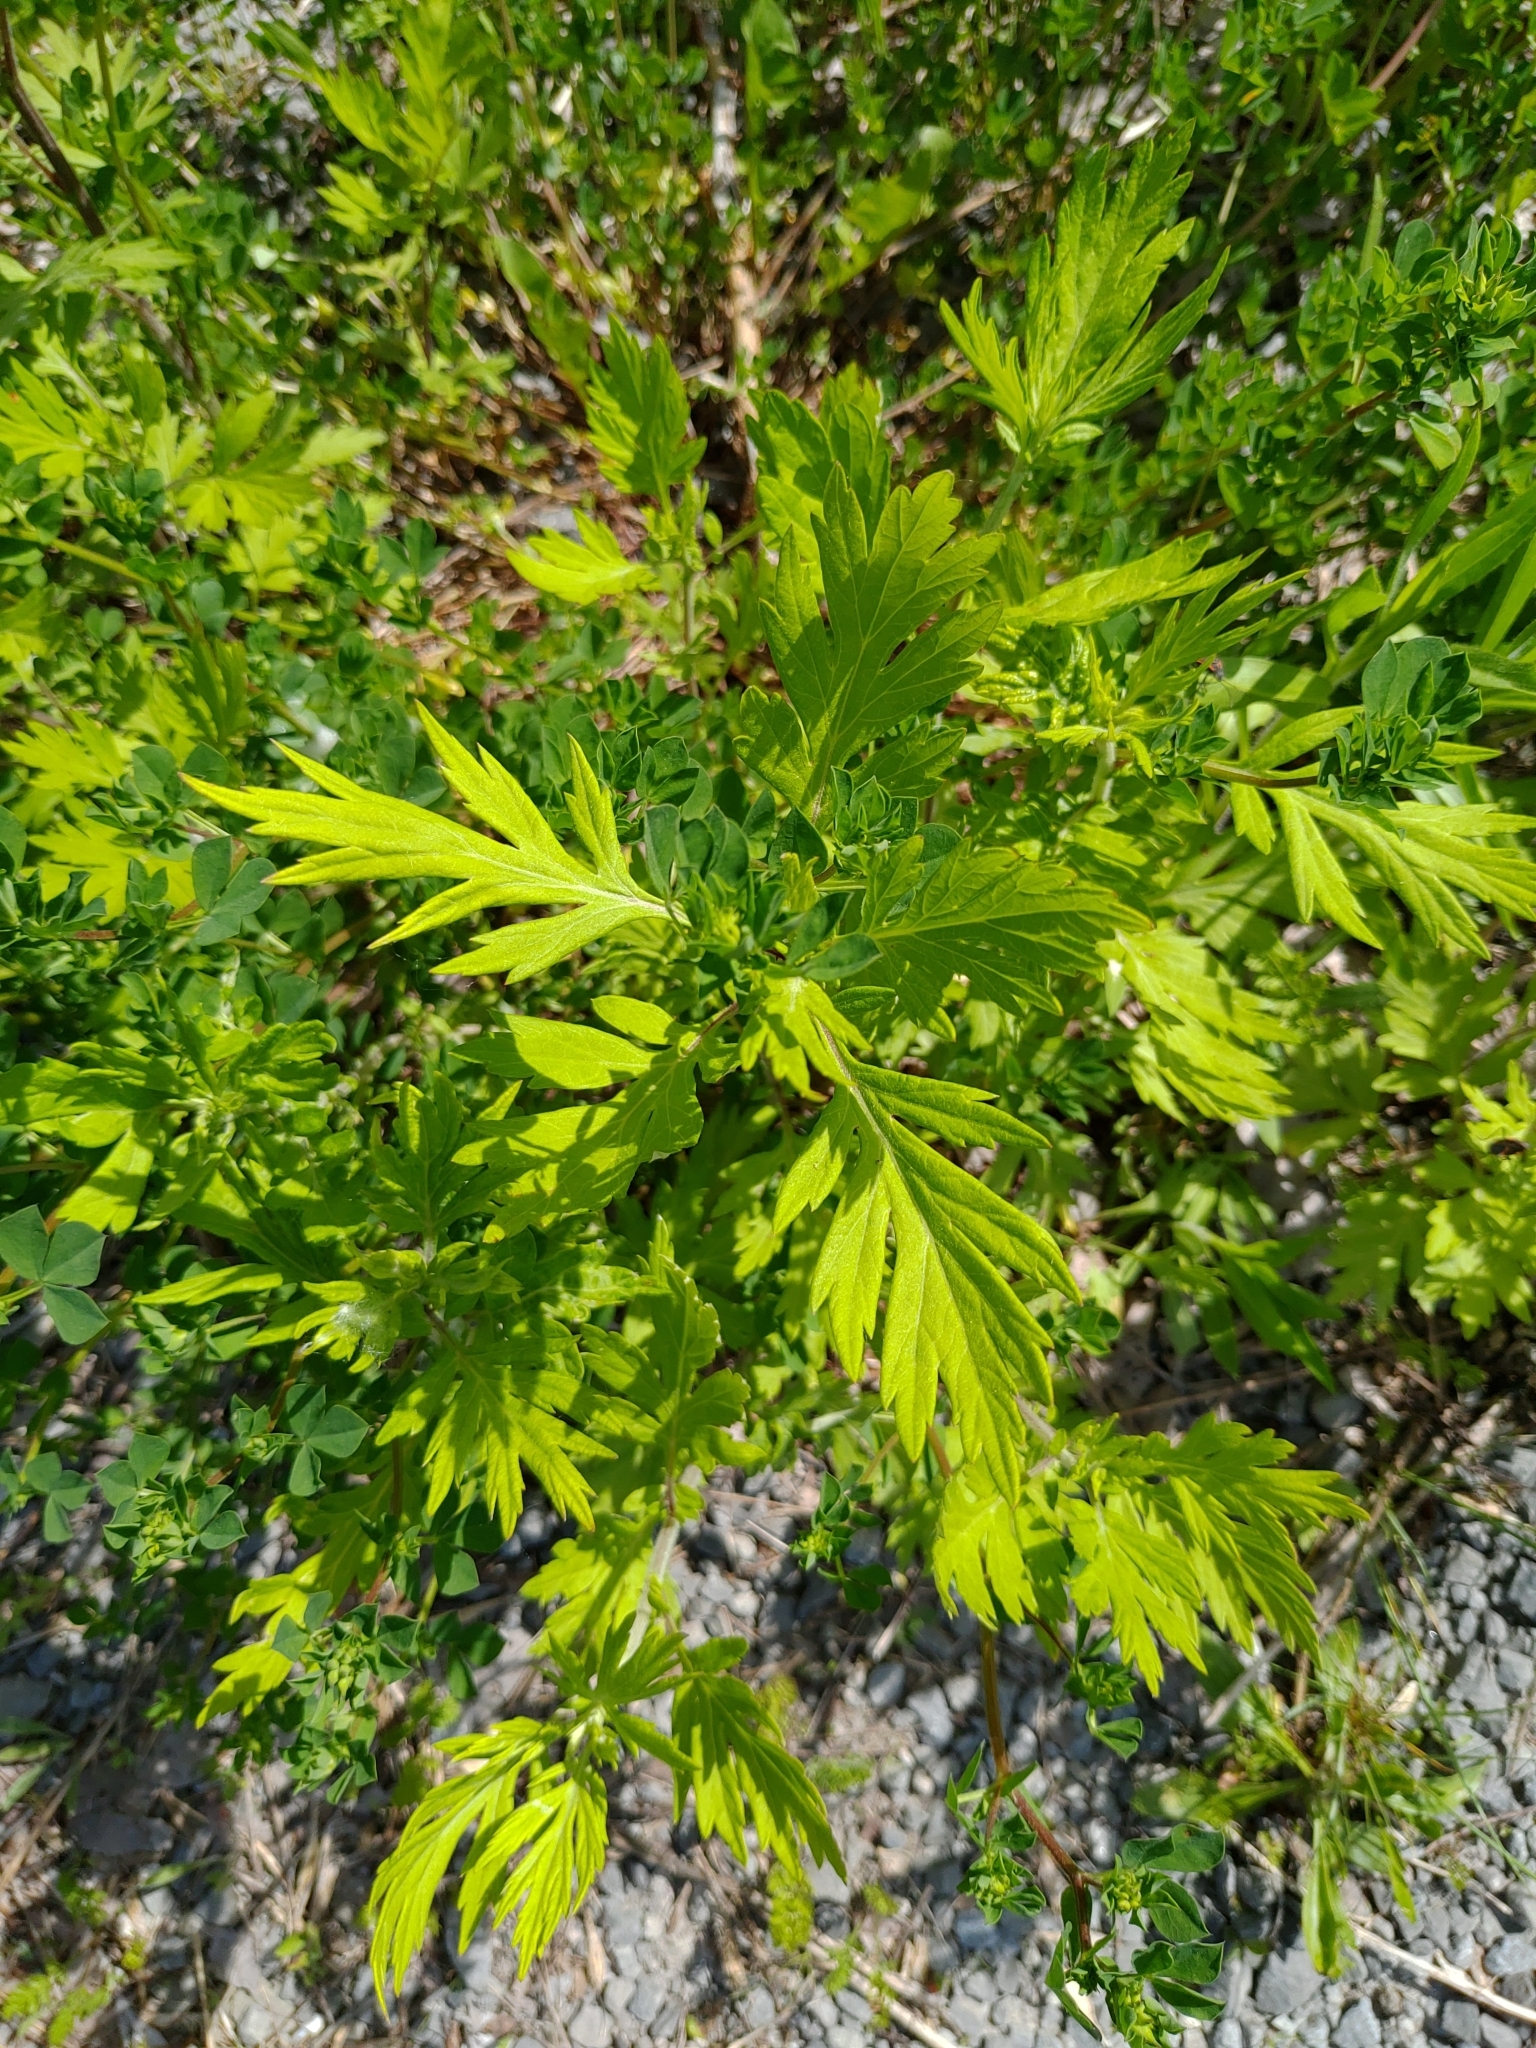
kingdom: Plantae
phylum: Tracheophyta
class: Magnoliopsida
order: Asterales
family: Asteraceae
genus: Artemisia
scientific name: Artemisia vulgaris
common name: Mugwort
